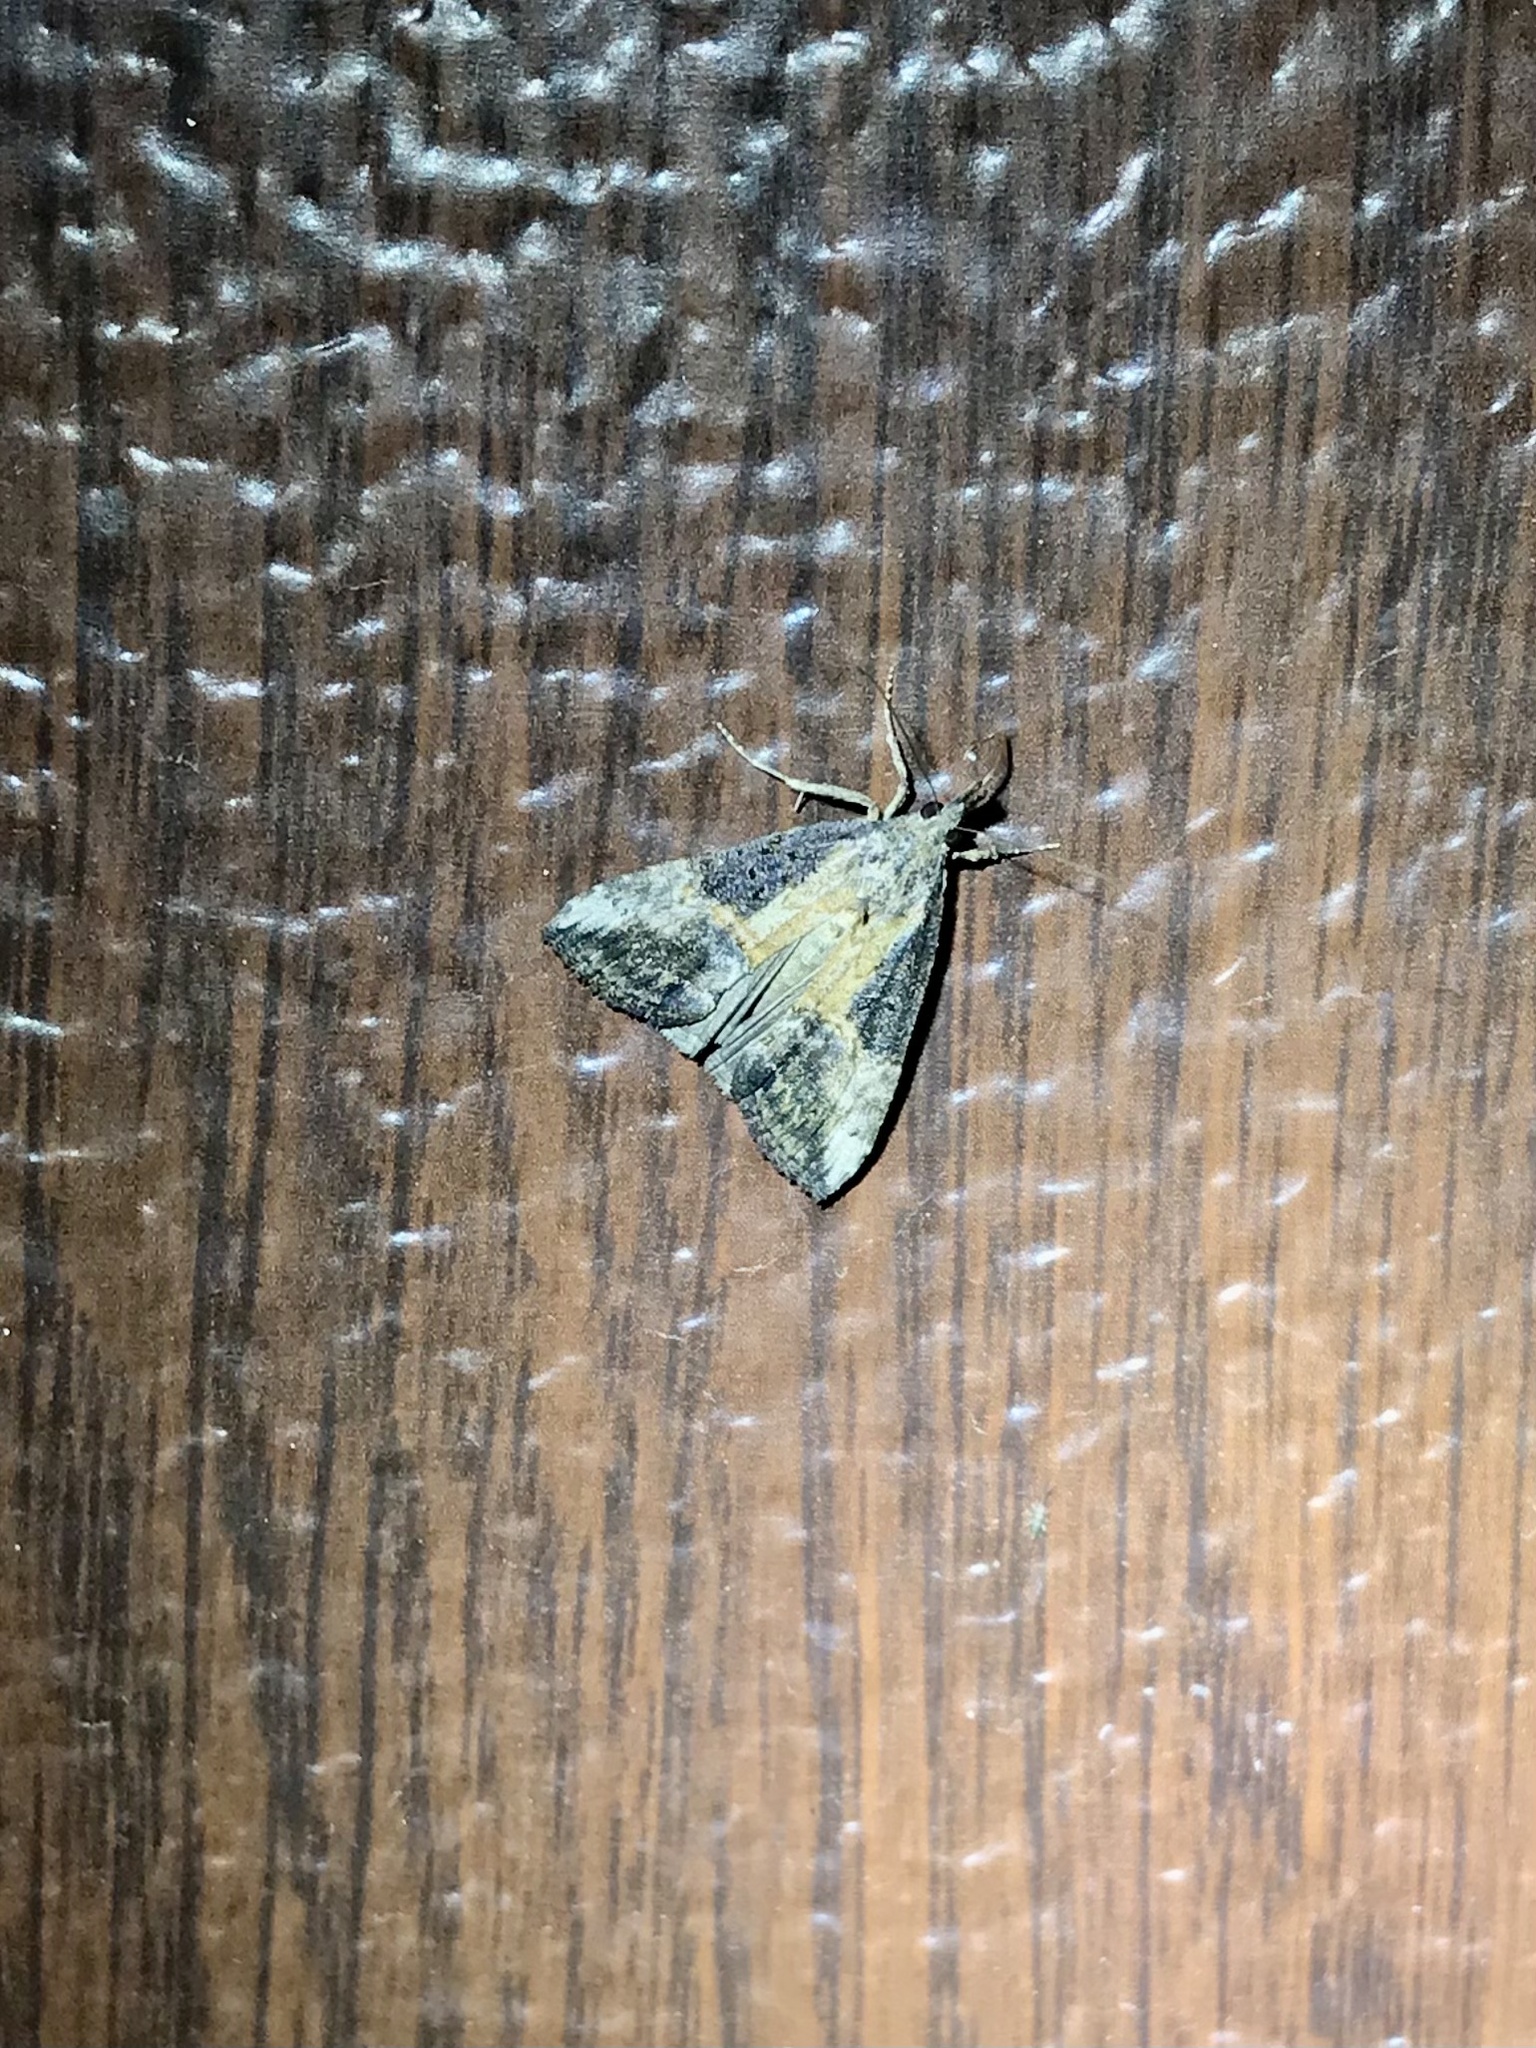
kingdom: Animalia
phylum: Arthropoda
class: Insecta
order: Lepidoptera
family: Erebidae
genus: Hypena
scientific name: Hypena scabra
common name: Green cloverworm
